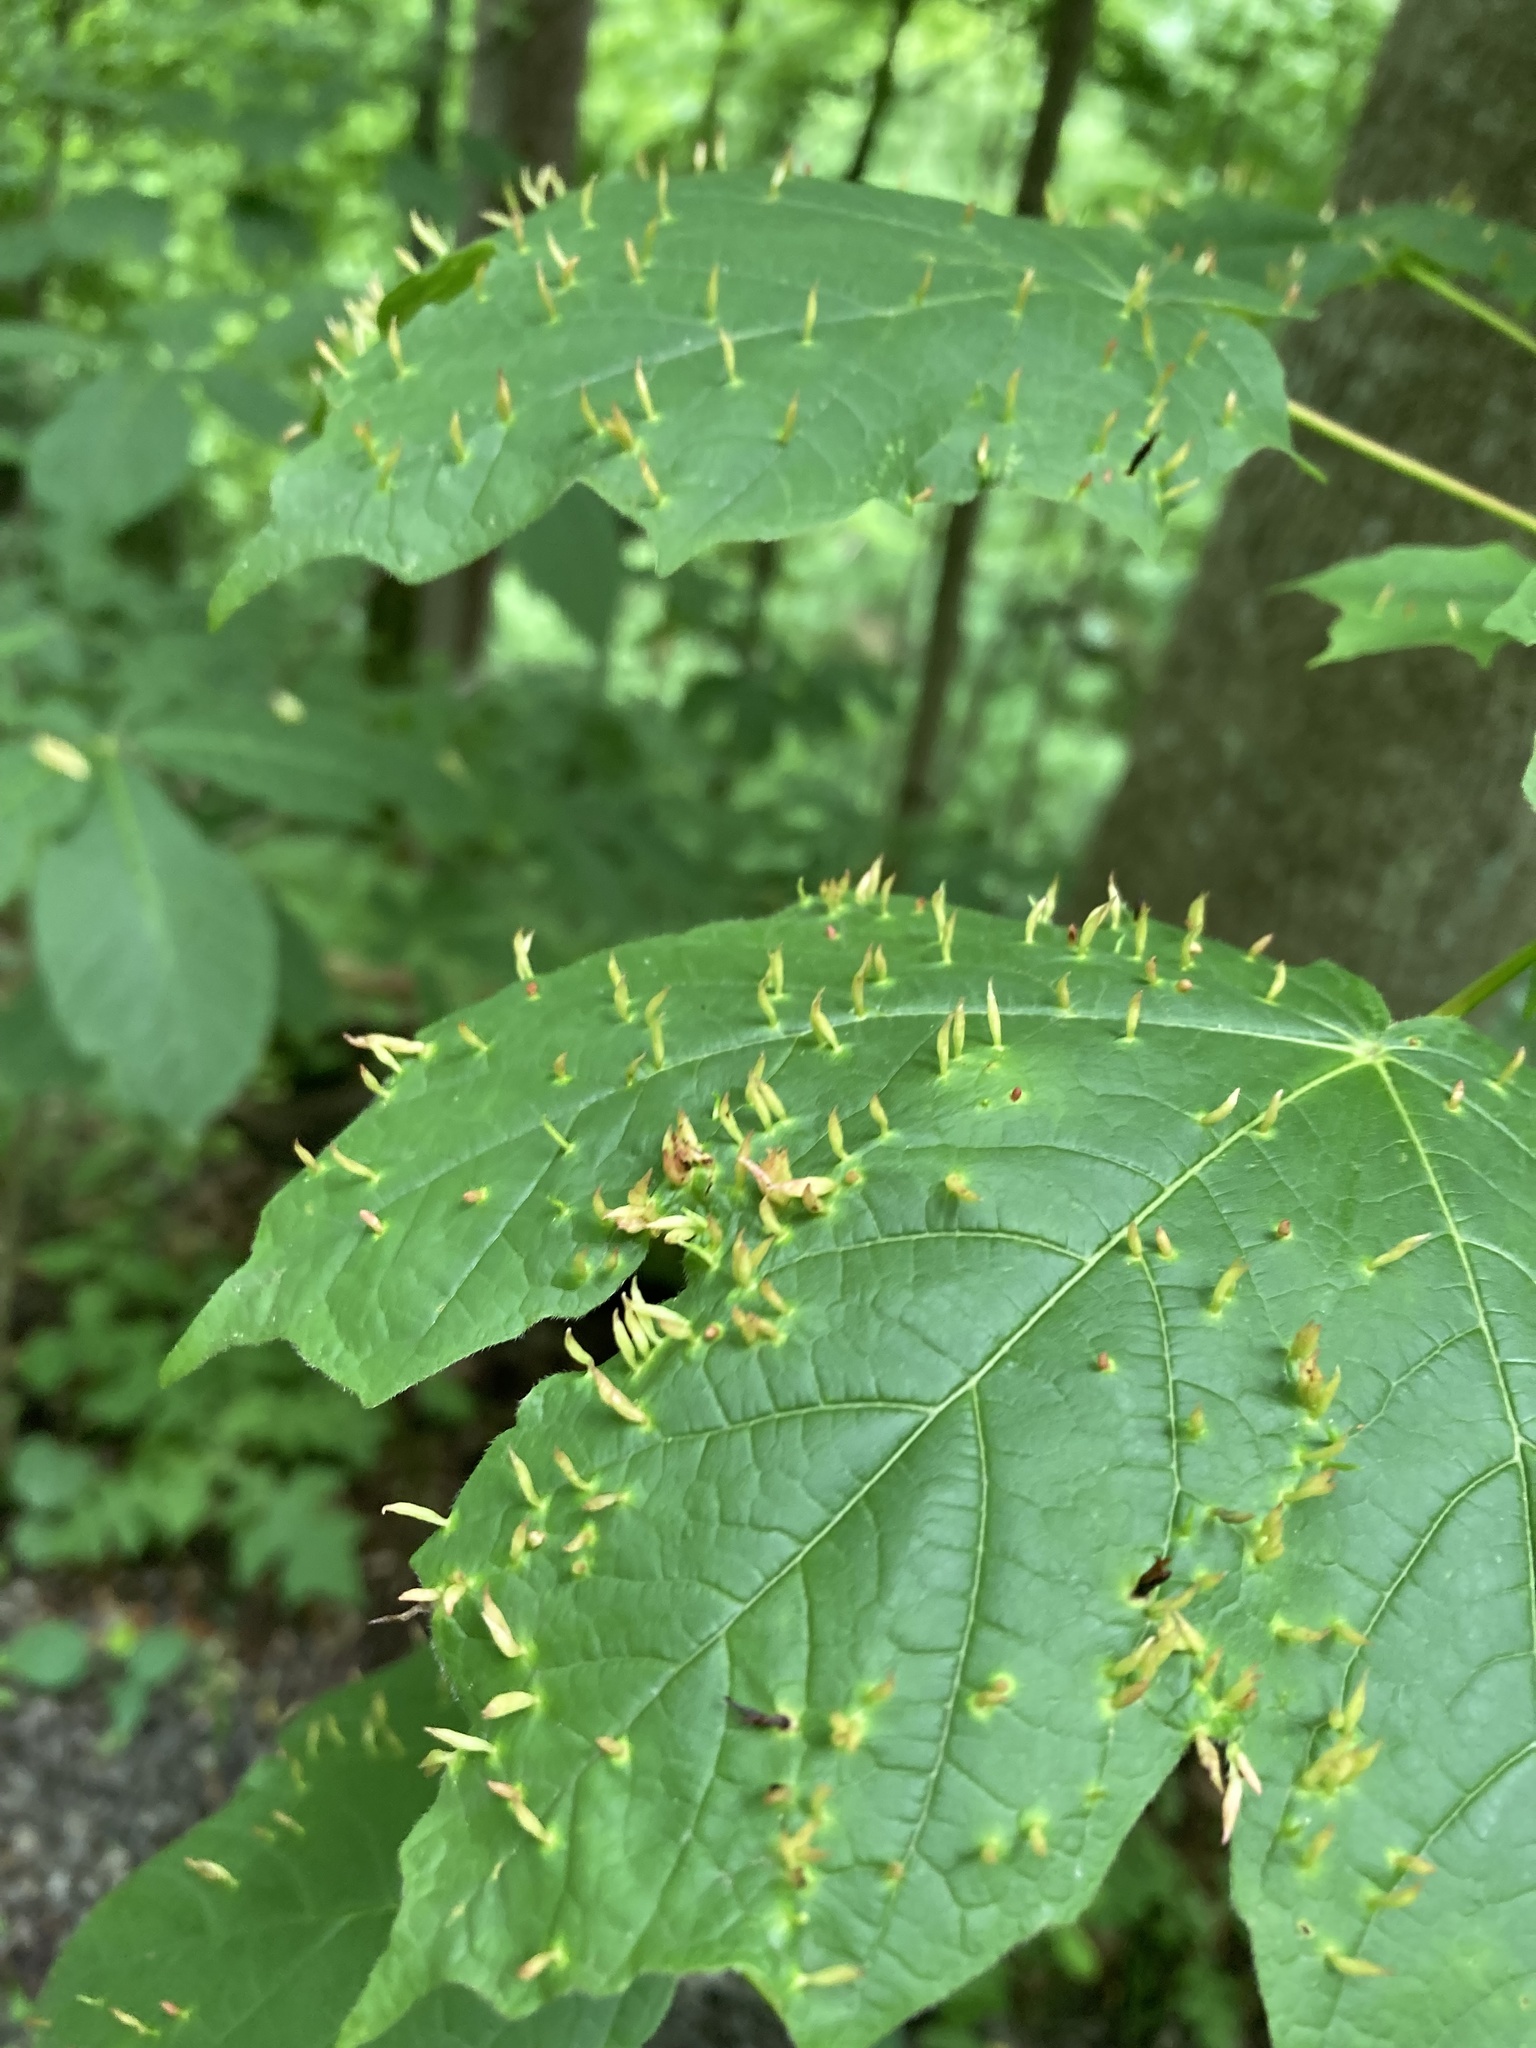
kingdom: Animalia
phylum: Arthropoda
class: Arachnida
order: Trombidiformes
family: Eriophyidae
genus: Vasates
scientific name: Vasates aceriscrumena
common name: Maple spindle gall mite
